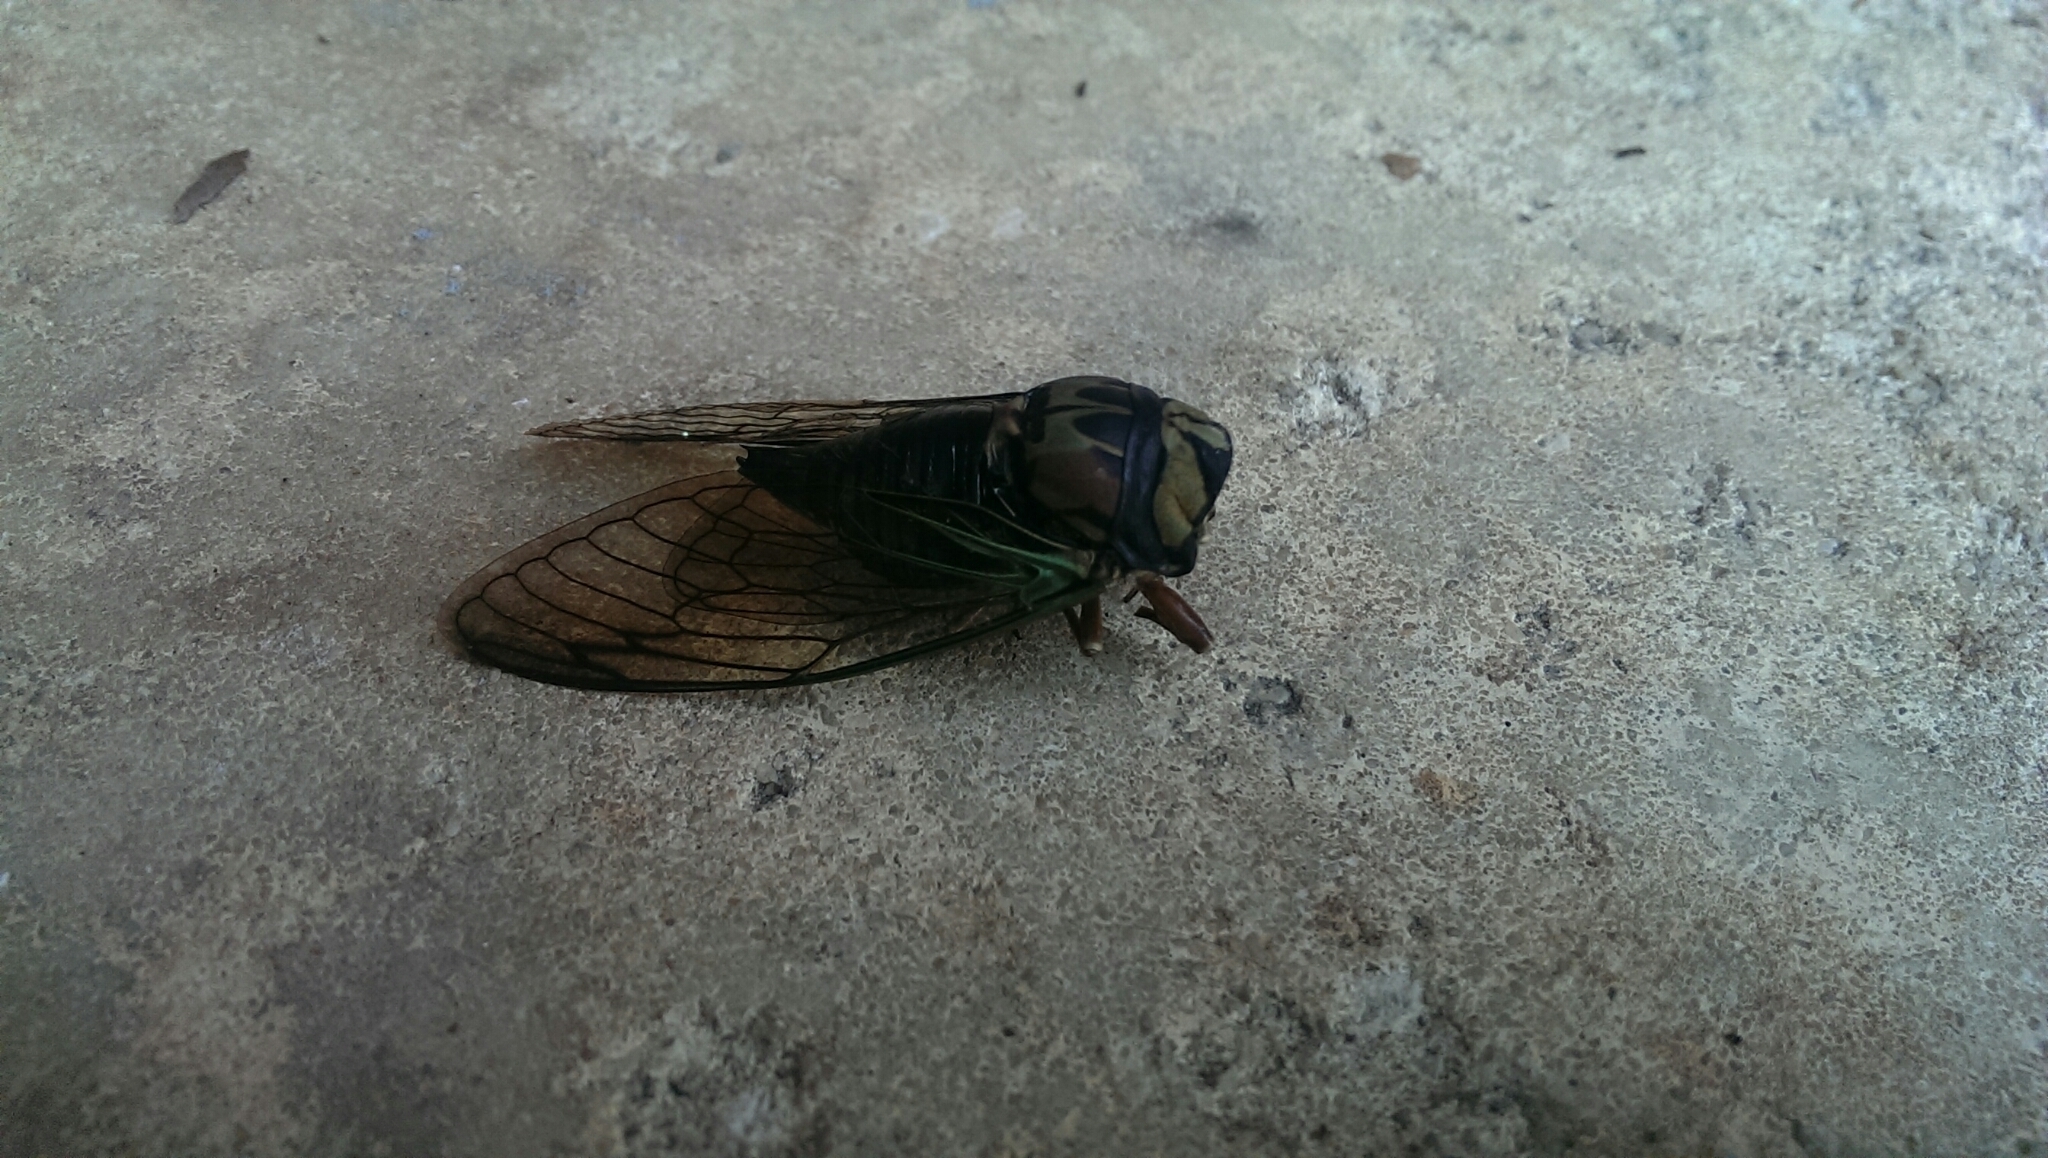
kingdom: Animalia
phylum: Arthropoda
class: Insecta
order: Hemiptera
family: Cicadidae
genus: Neotibicen
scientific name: Neotibicen lyricen
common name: Lyric cicada
